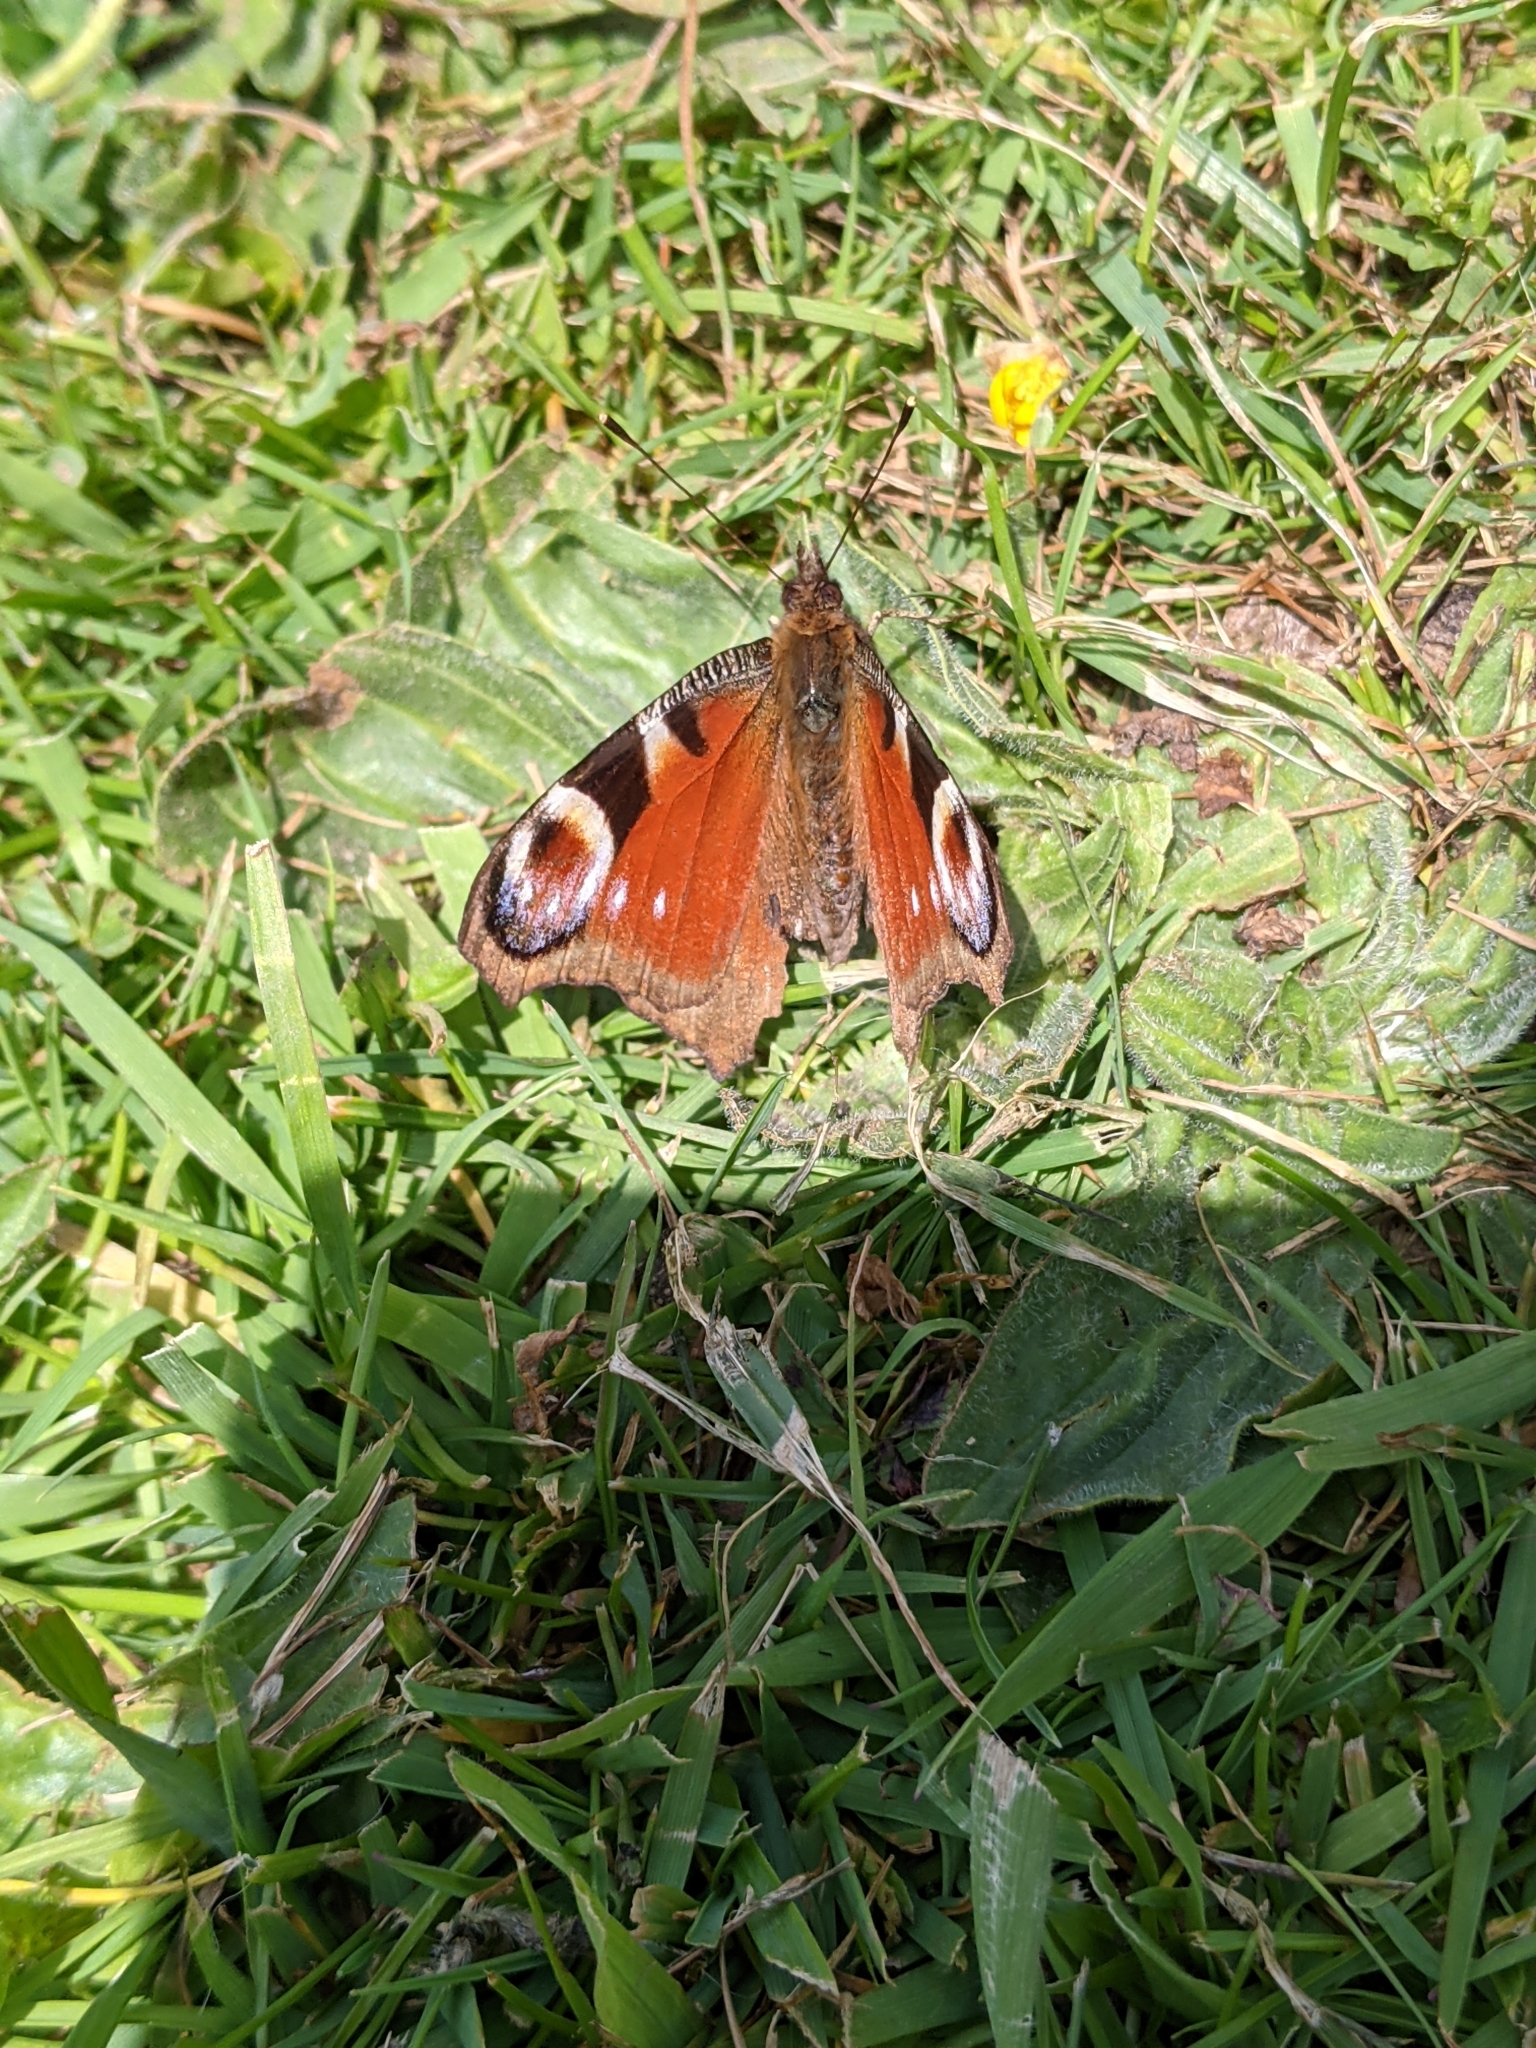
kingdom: Animalia
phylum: Arthropoda
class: Insecta
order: Lepidoptera
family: Nymphalidae
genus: Aglais
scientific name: Aglais io
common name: Peacock
